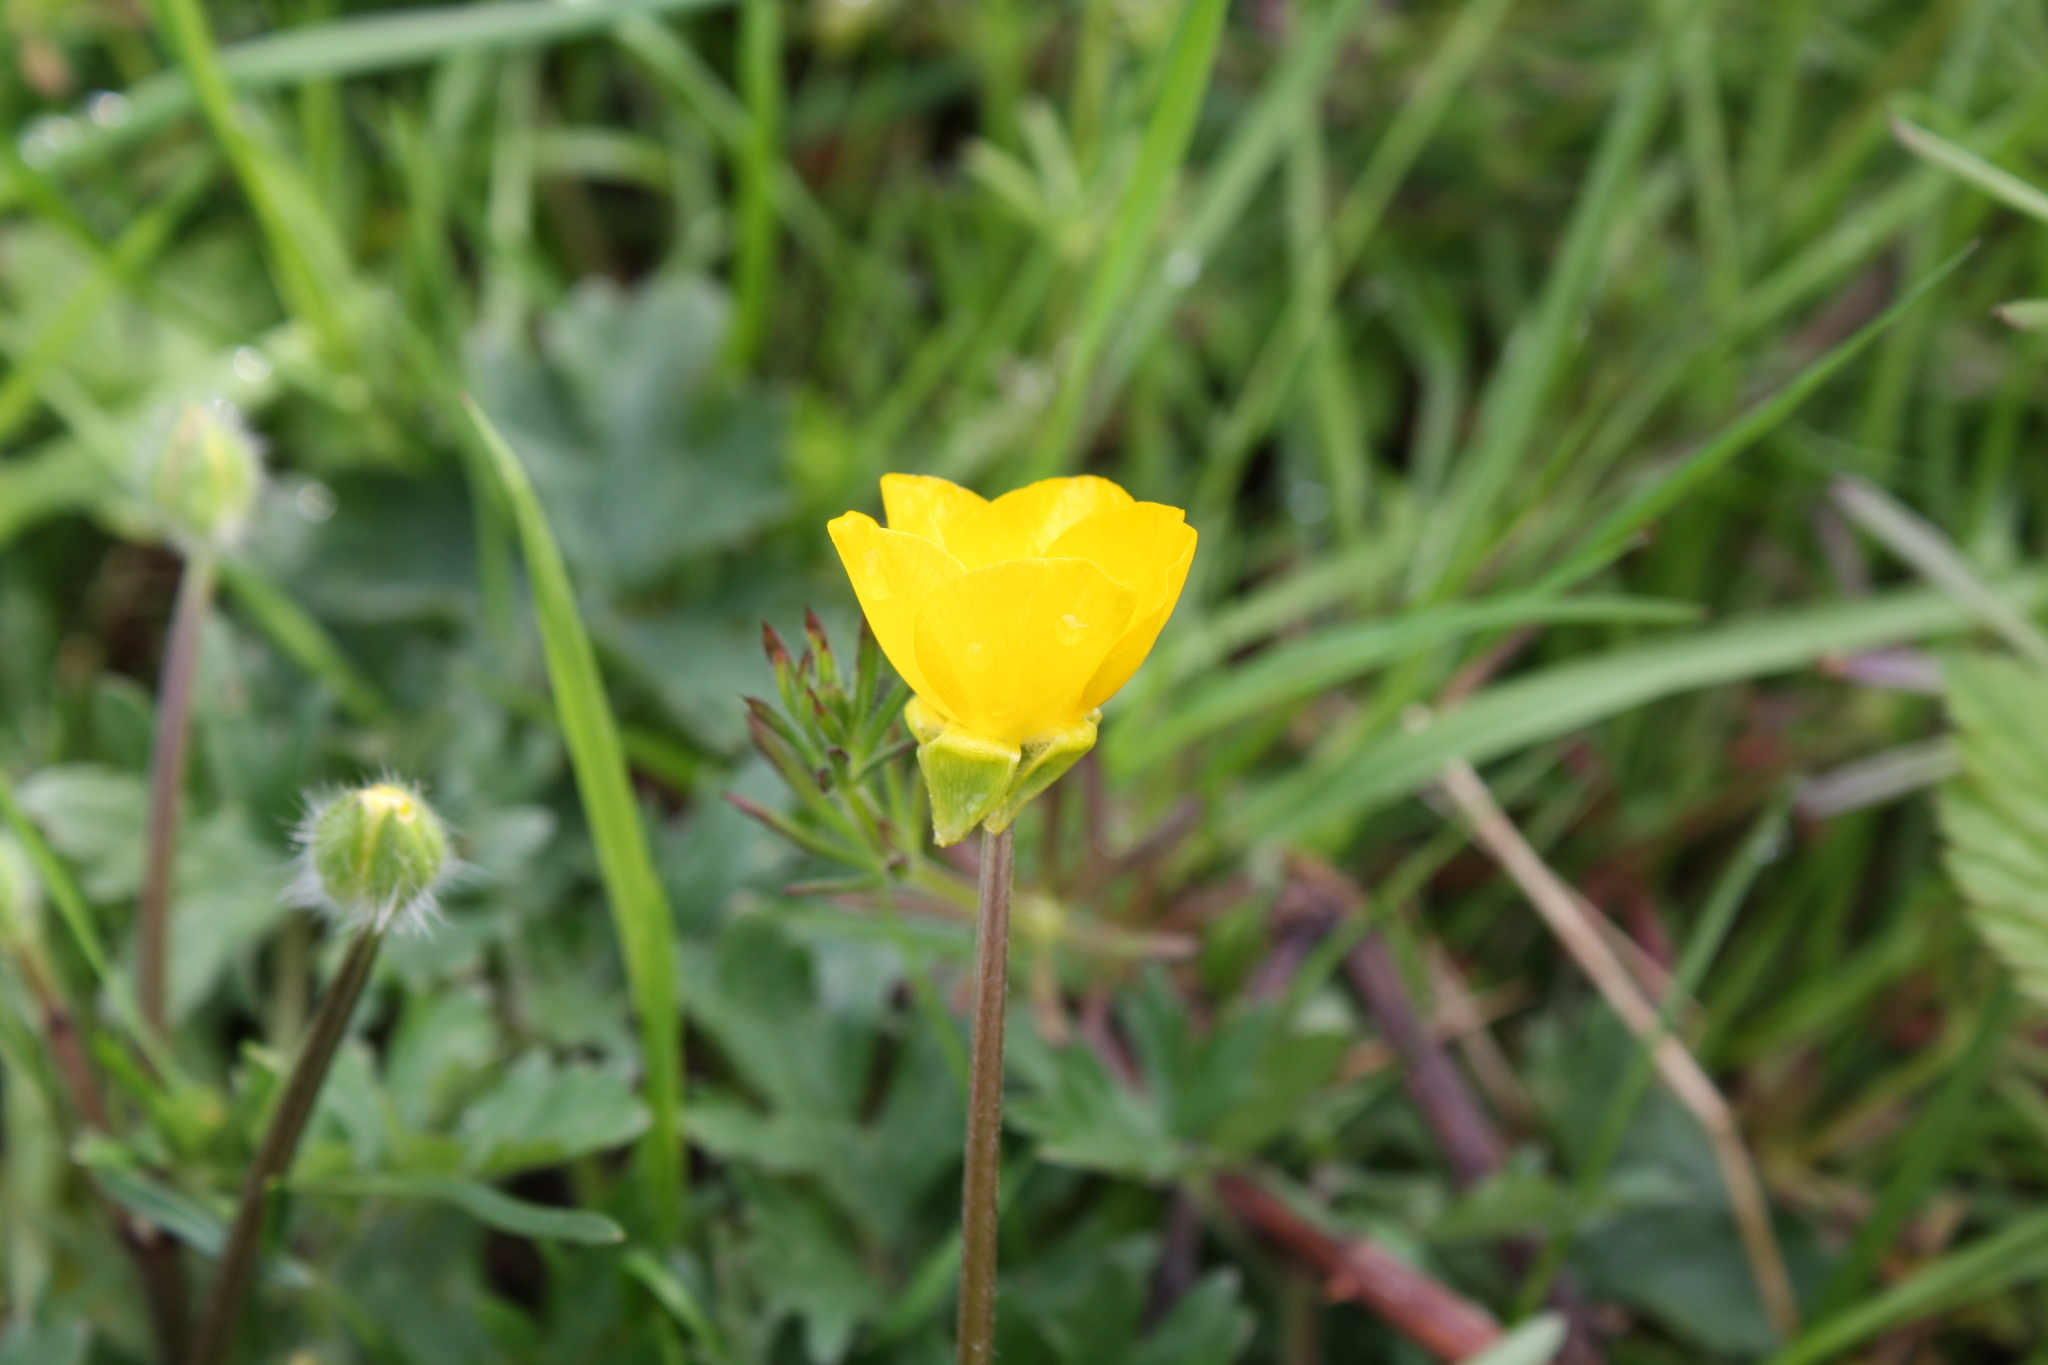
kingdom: Plantae
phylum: Tracheophyta
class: Magnoliopsida
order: Ranunculales
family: Ranunculaceae
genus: Ranunculus
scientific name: Ranunculus bulbosus
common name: Bulbous buttercup
